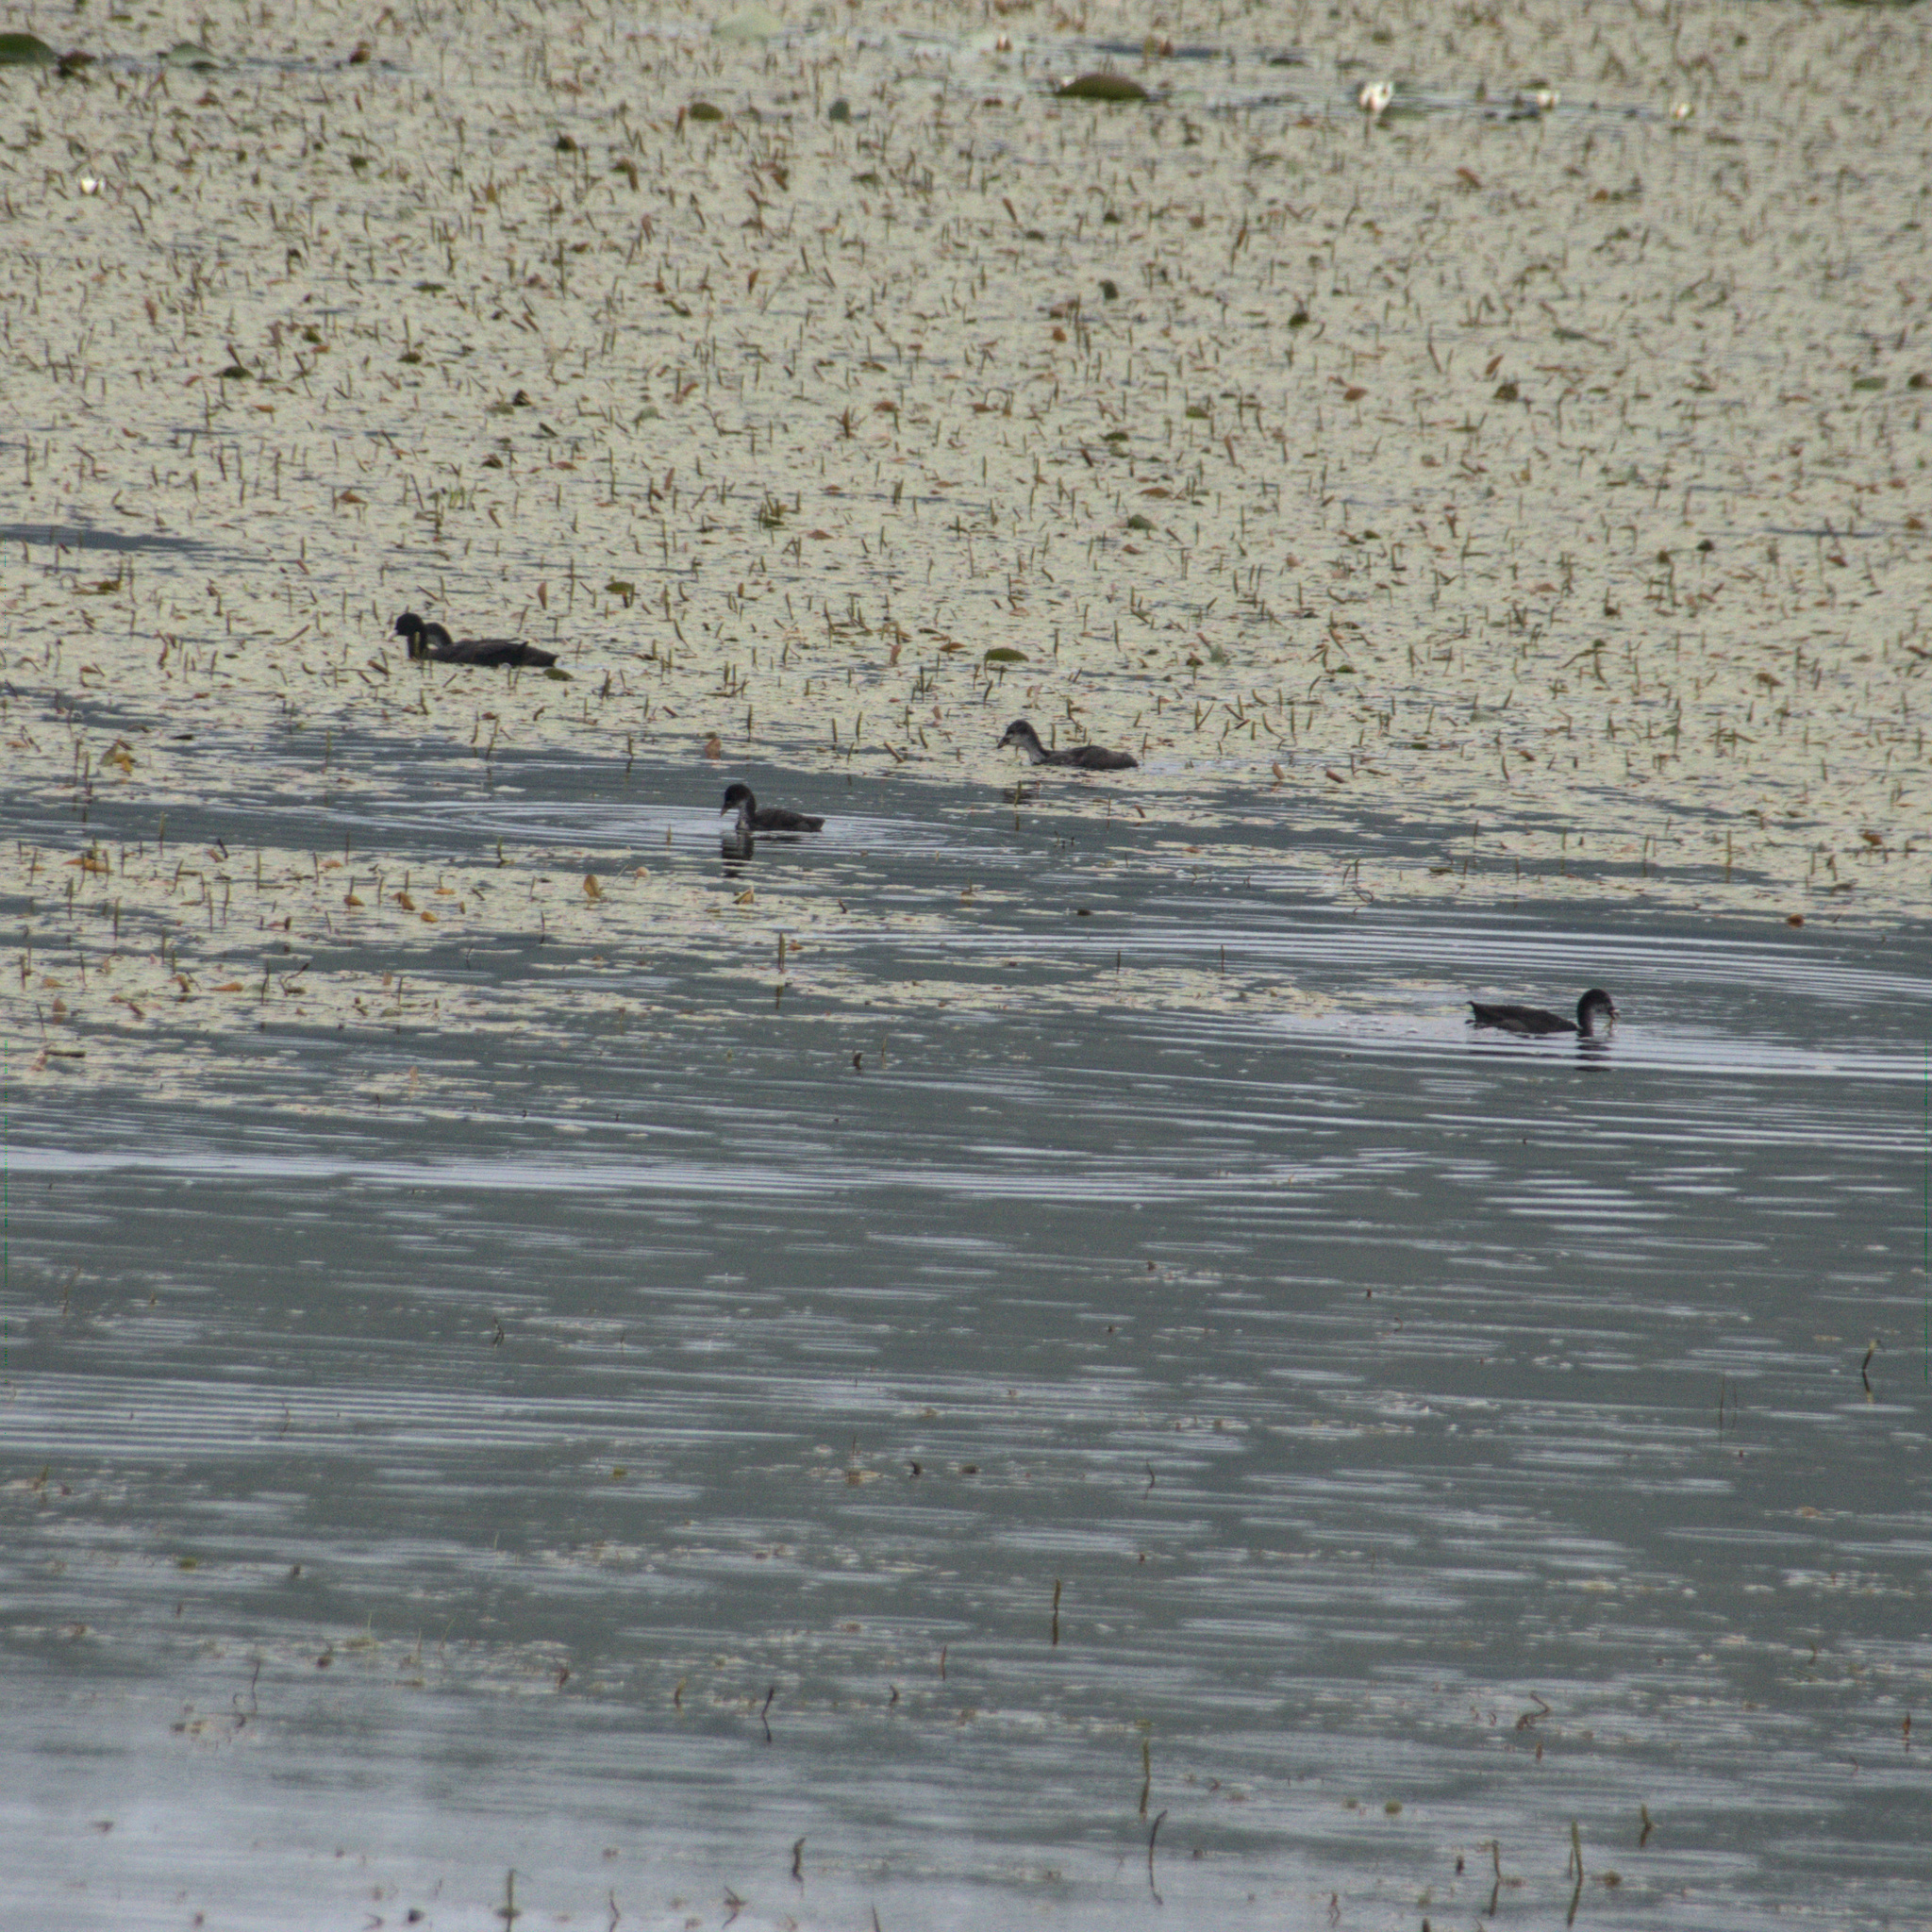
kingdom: Animalia
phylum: Chordata
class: Aves
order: Gruiformes
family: Rallidae
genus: Fulica
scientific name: Fulica atra
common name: Eurasian coot
